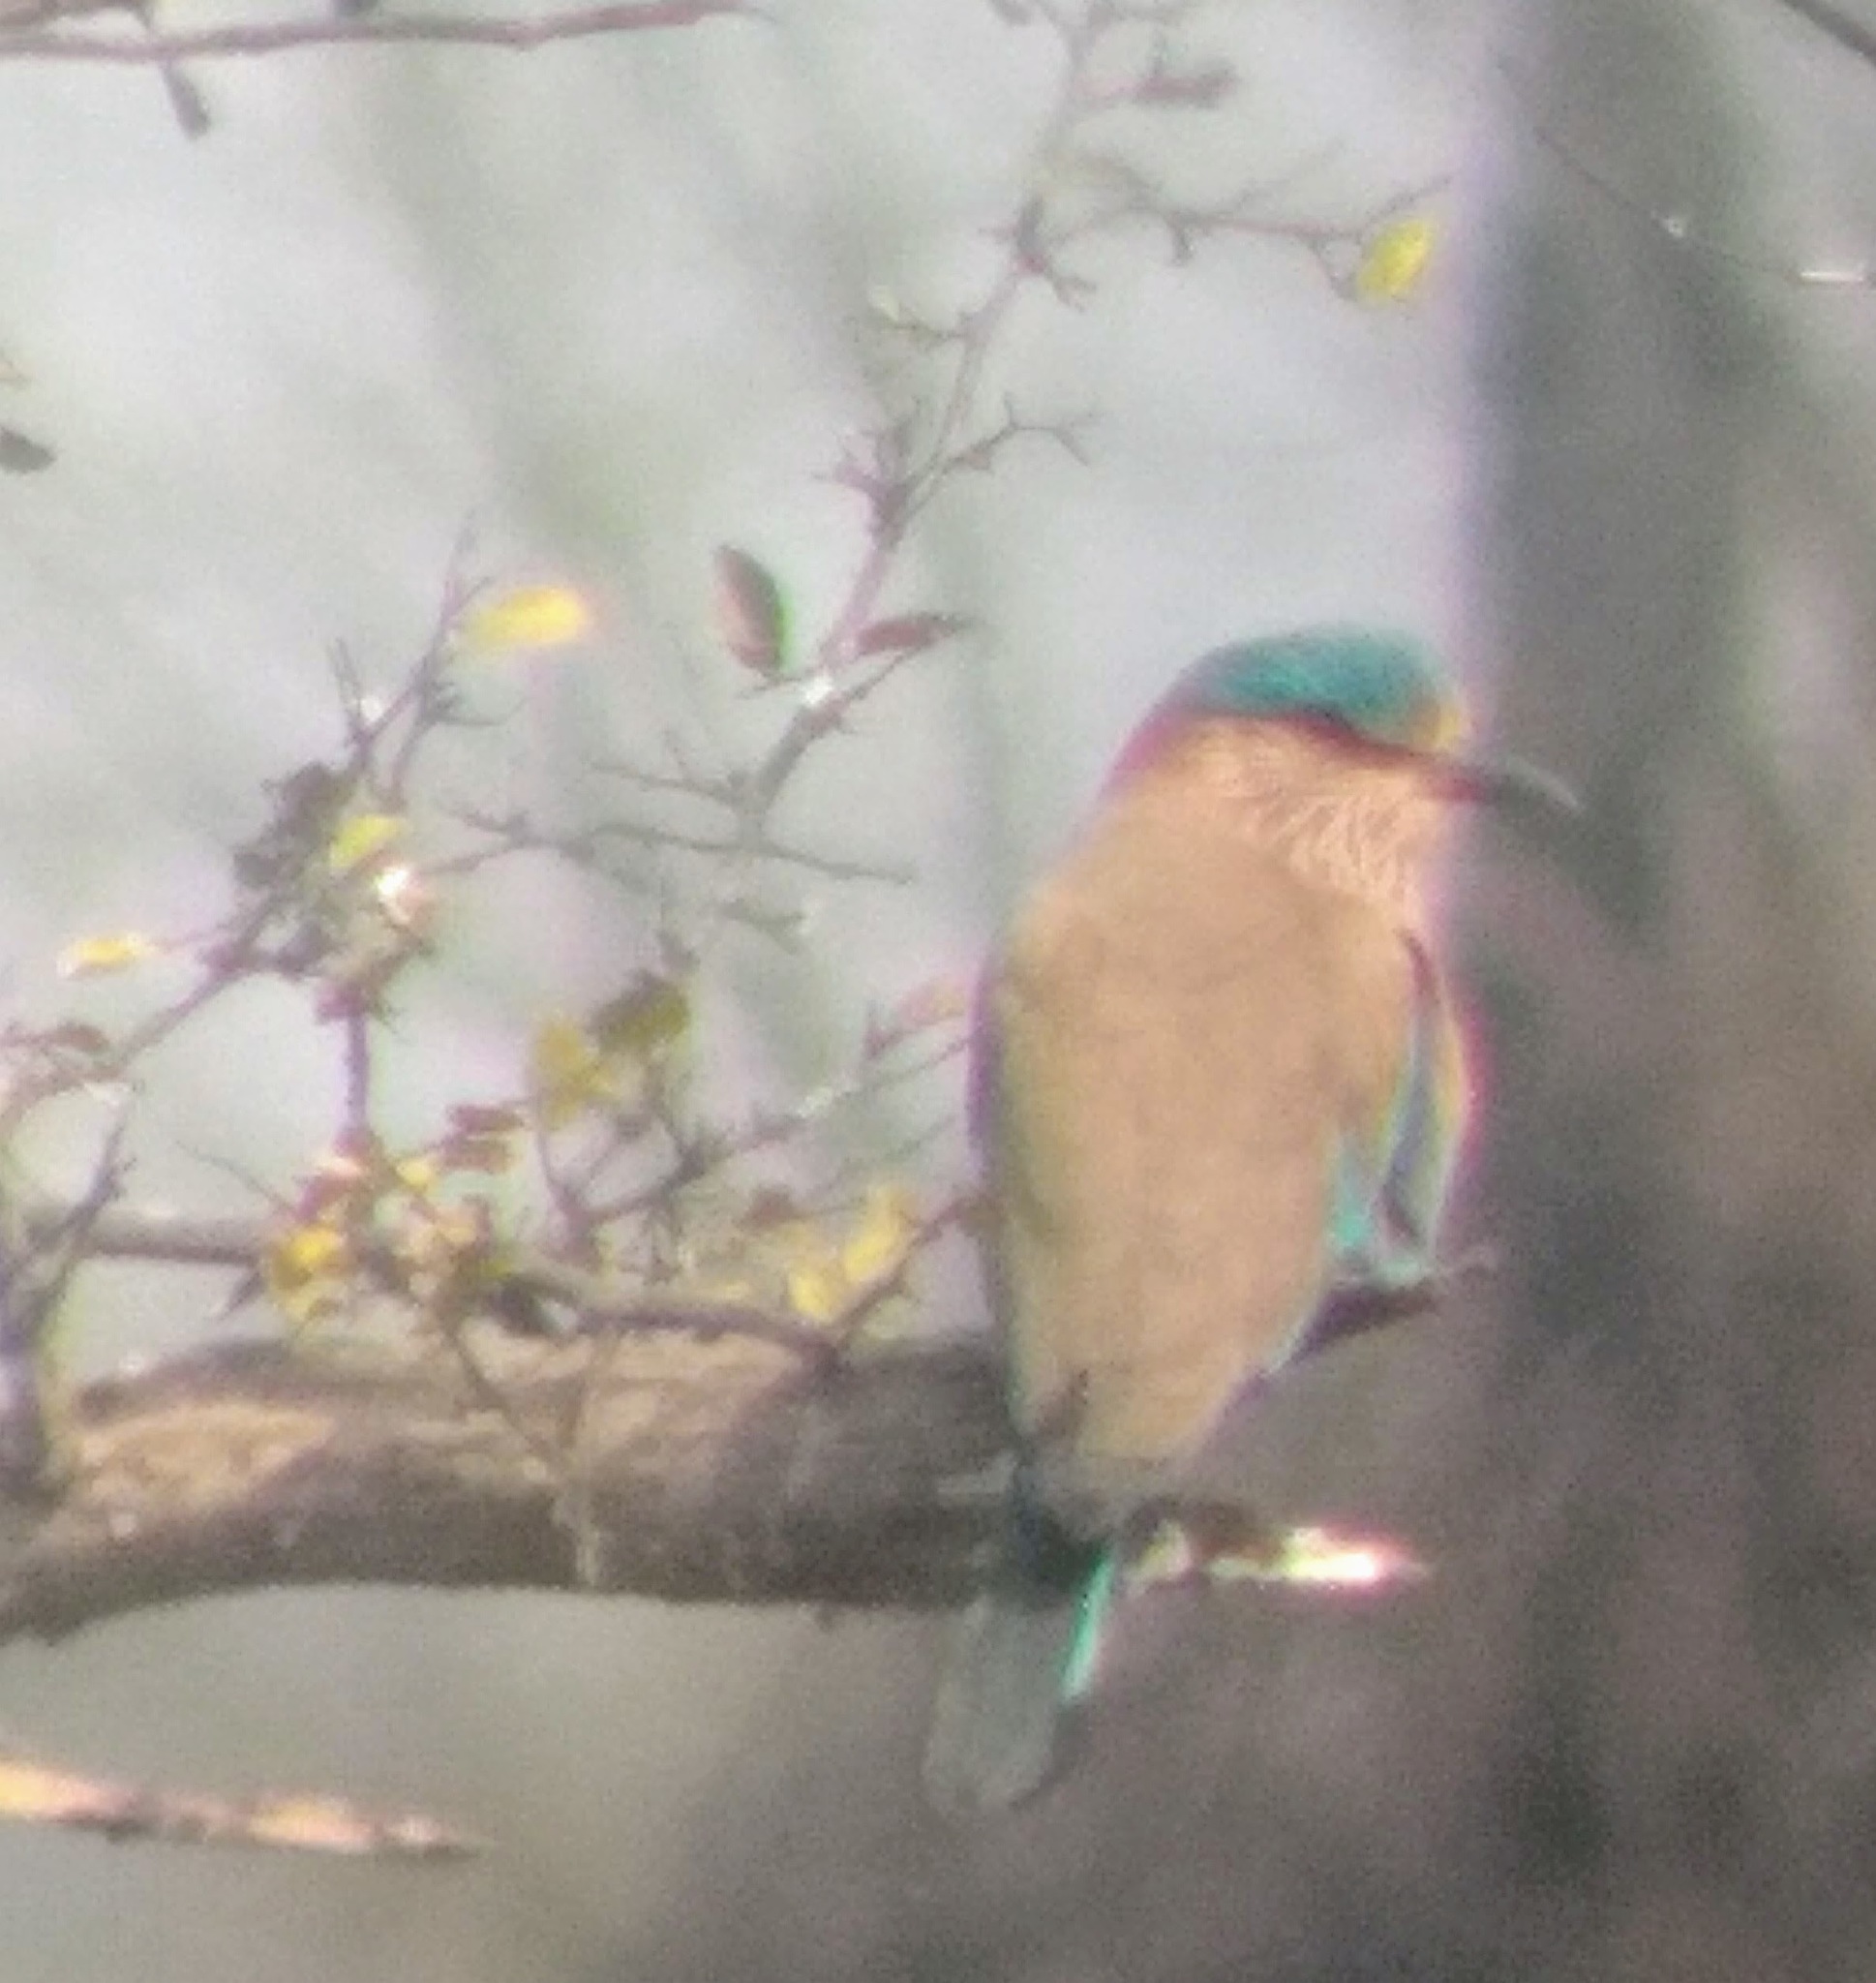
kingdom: Animalia
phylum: Chordata
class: Aves
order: Coraciiformes
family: Coraciidae
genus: Coracias
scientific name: Coracias benghalensis
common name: Indian roller
